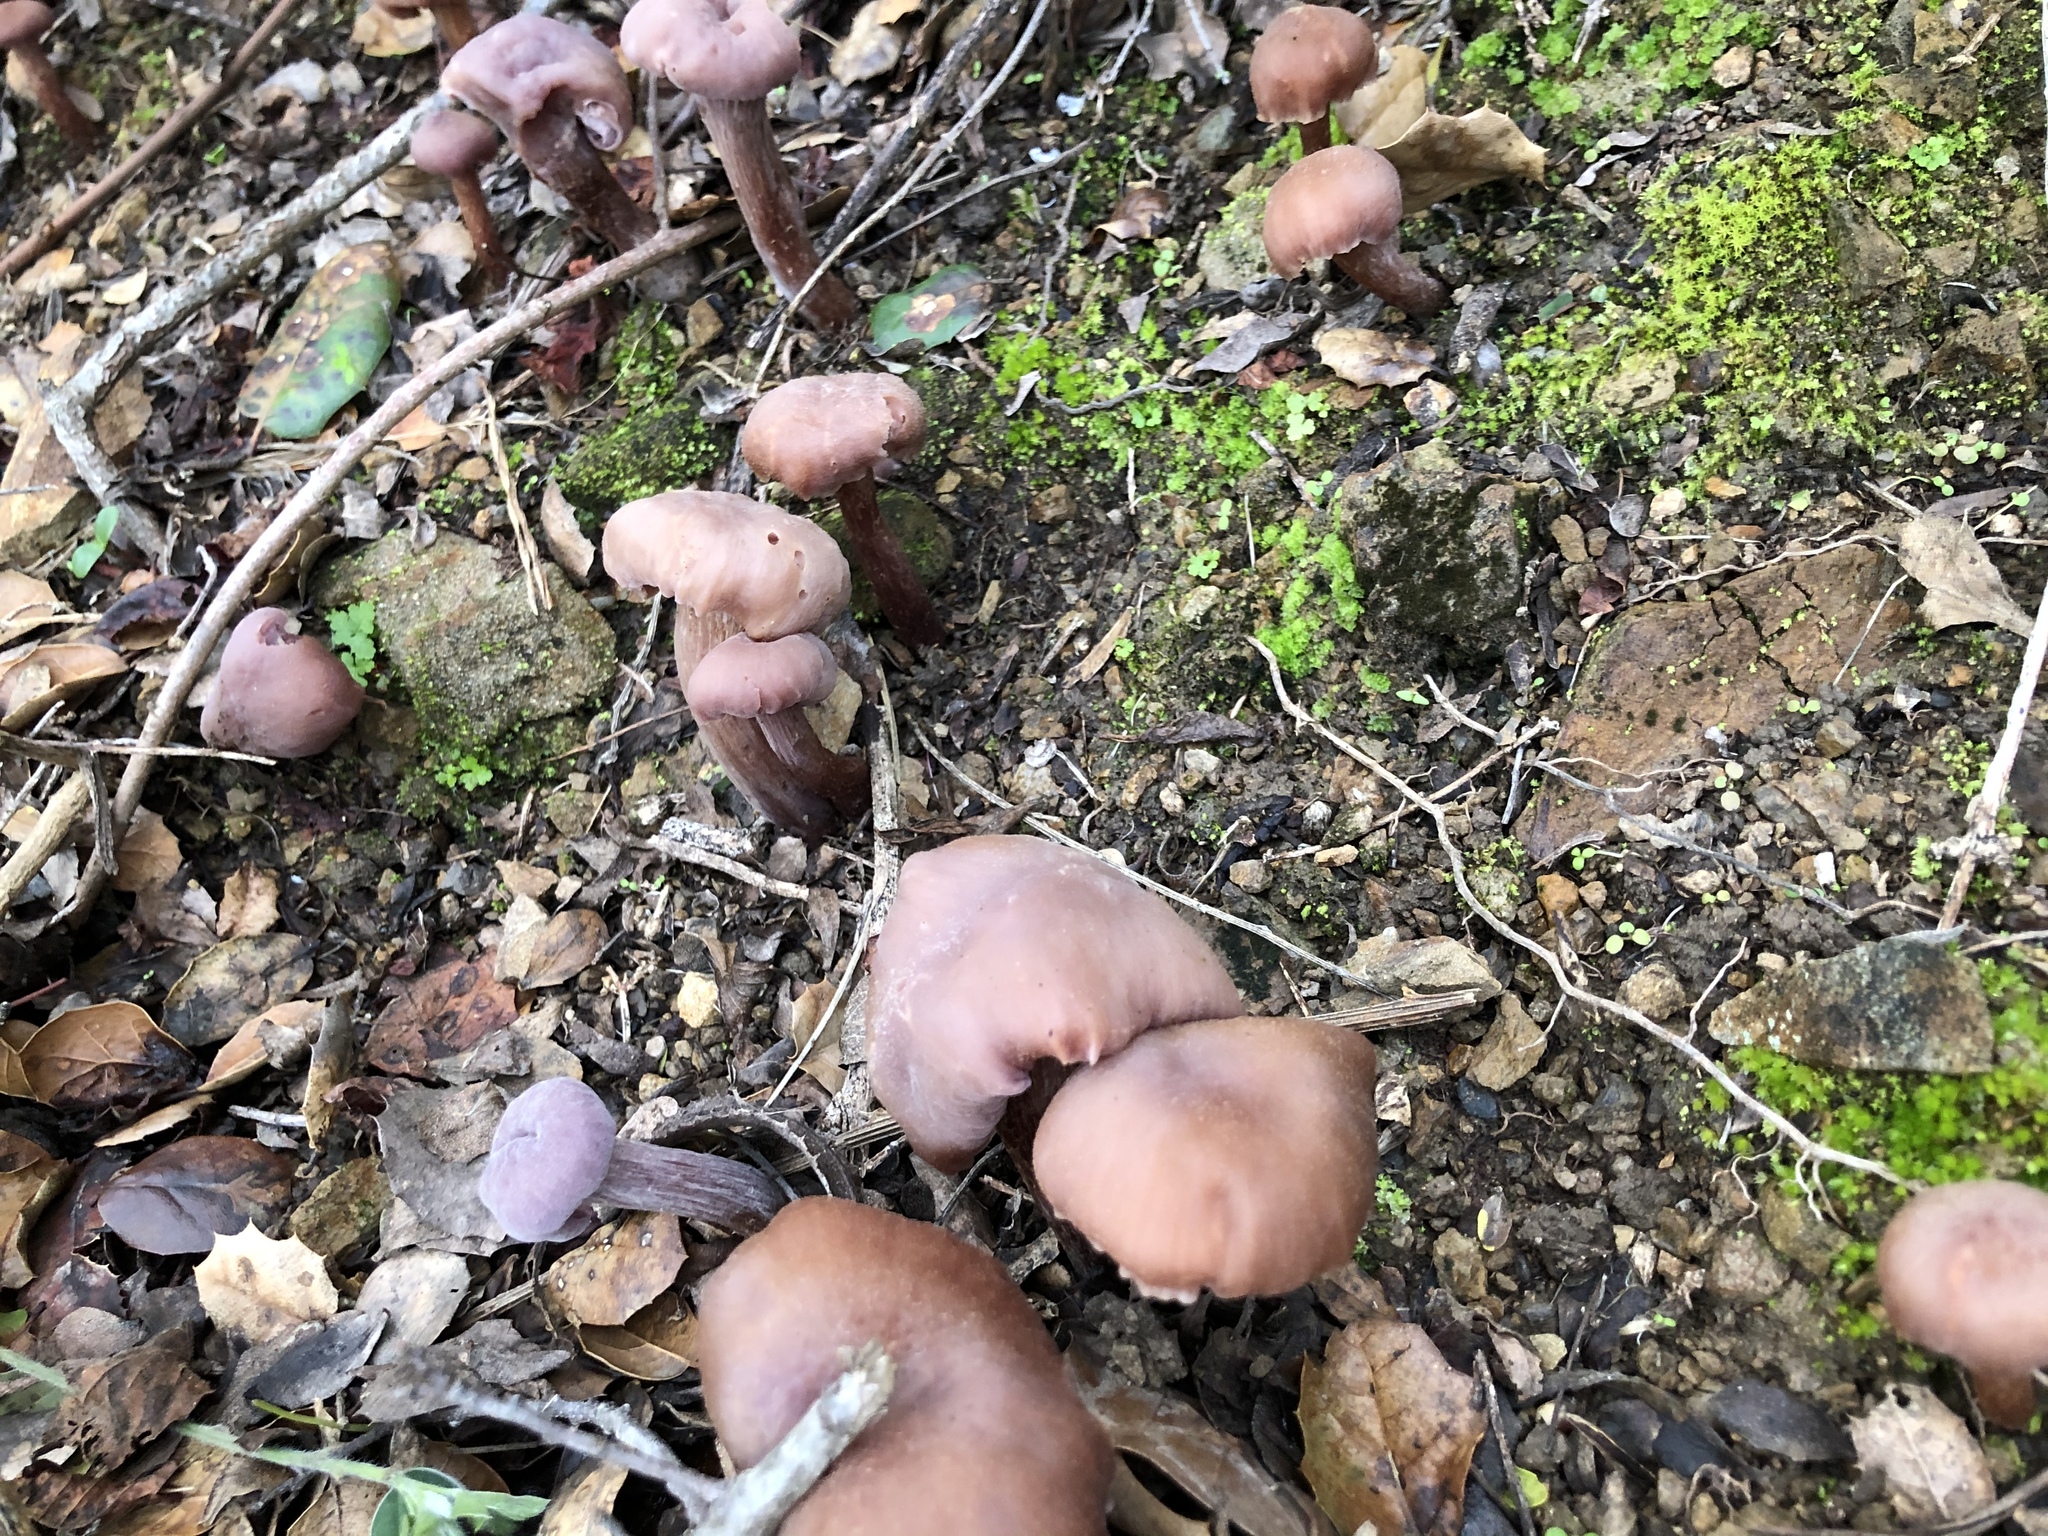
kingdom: Fungi
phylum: Basidiomycota
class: Agaricomycetes
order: Agaricales
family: Hydnangiaceae
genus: Laccaria
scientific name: Laccaria amethysteo-occidentalis
